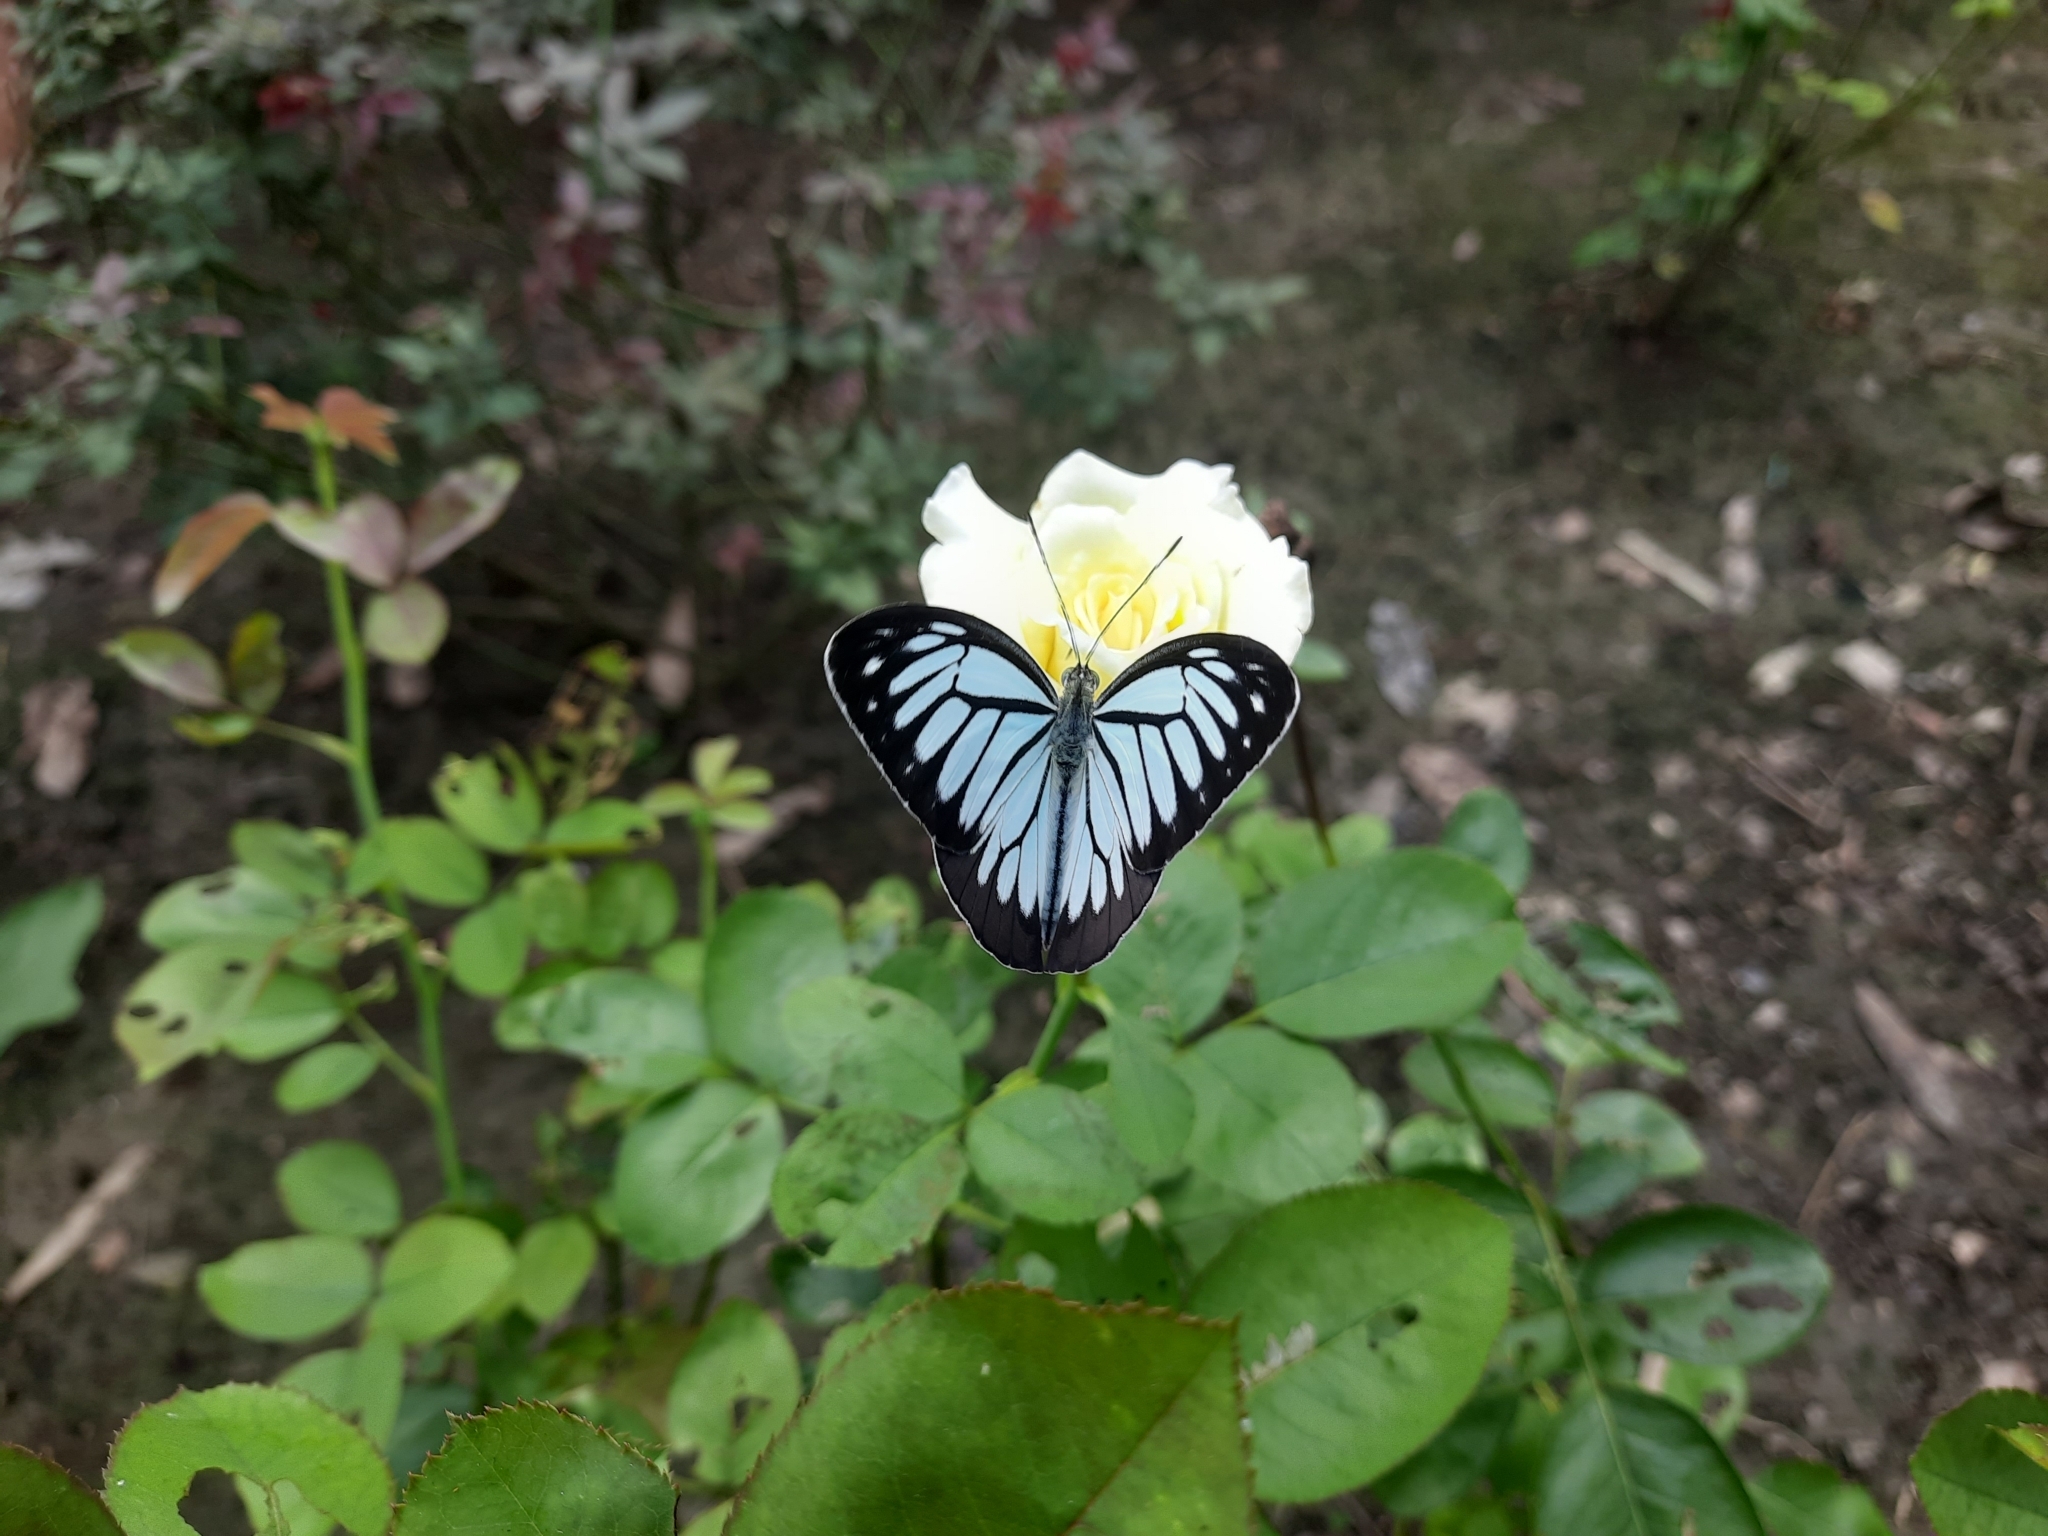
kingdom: Animalia
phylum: Arthropoda
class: Insecta
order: Lepidoptera
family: Pieridae
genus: Pareronia
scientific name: Pareronia hippia
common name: Indian wanderer
